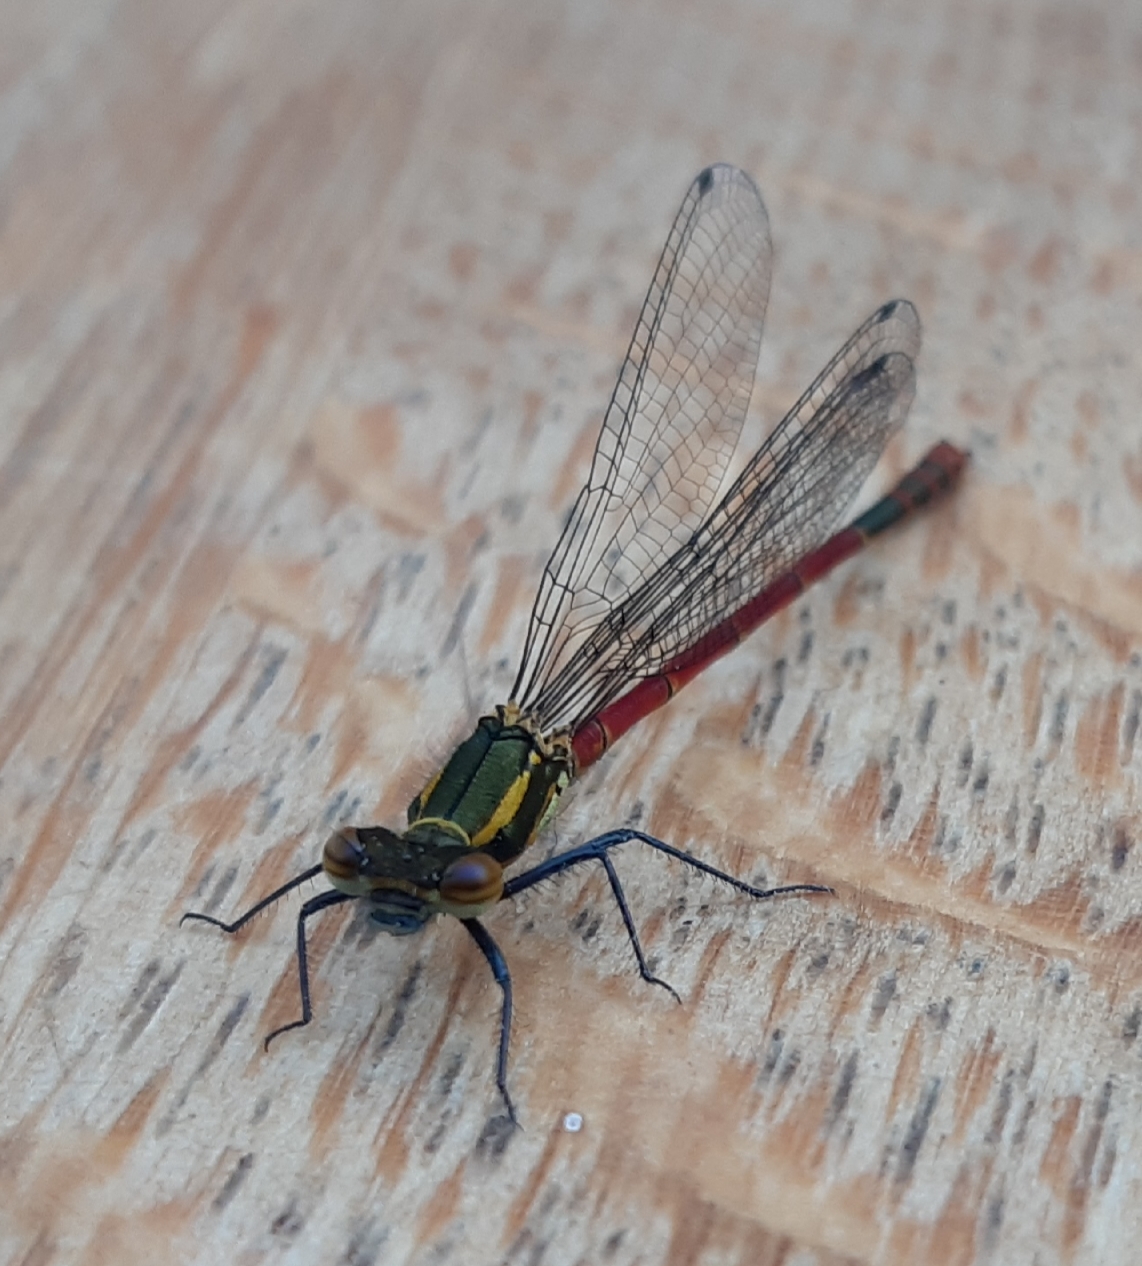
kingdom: Animalia
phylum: Arthropoda
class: Insecta
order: Odonata
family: Coenagrionidae
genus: Pyrrhosoma
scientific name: Pyrrhosoma nymphula
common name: Large red damsel
